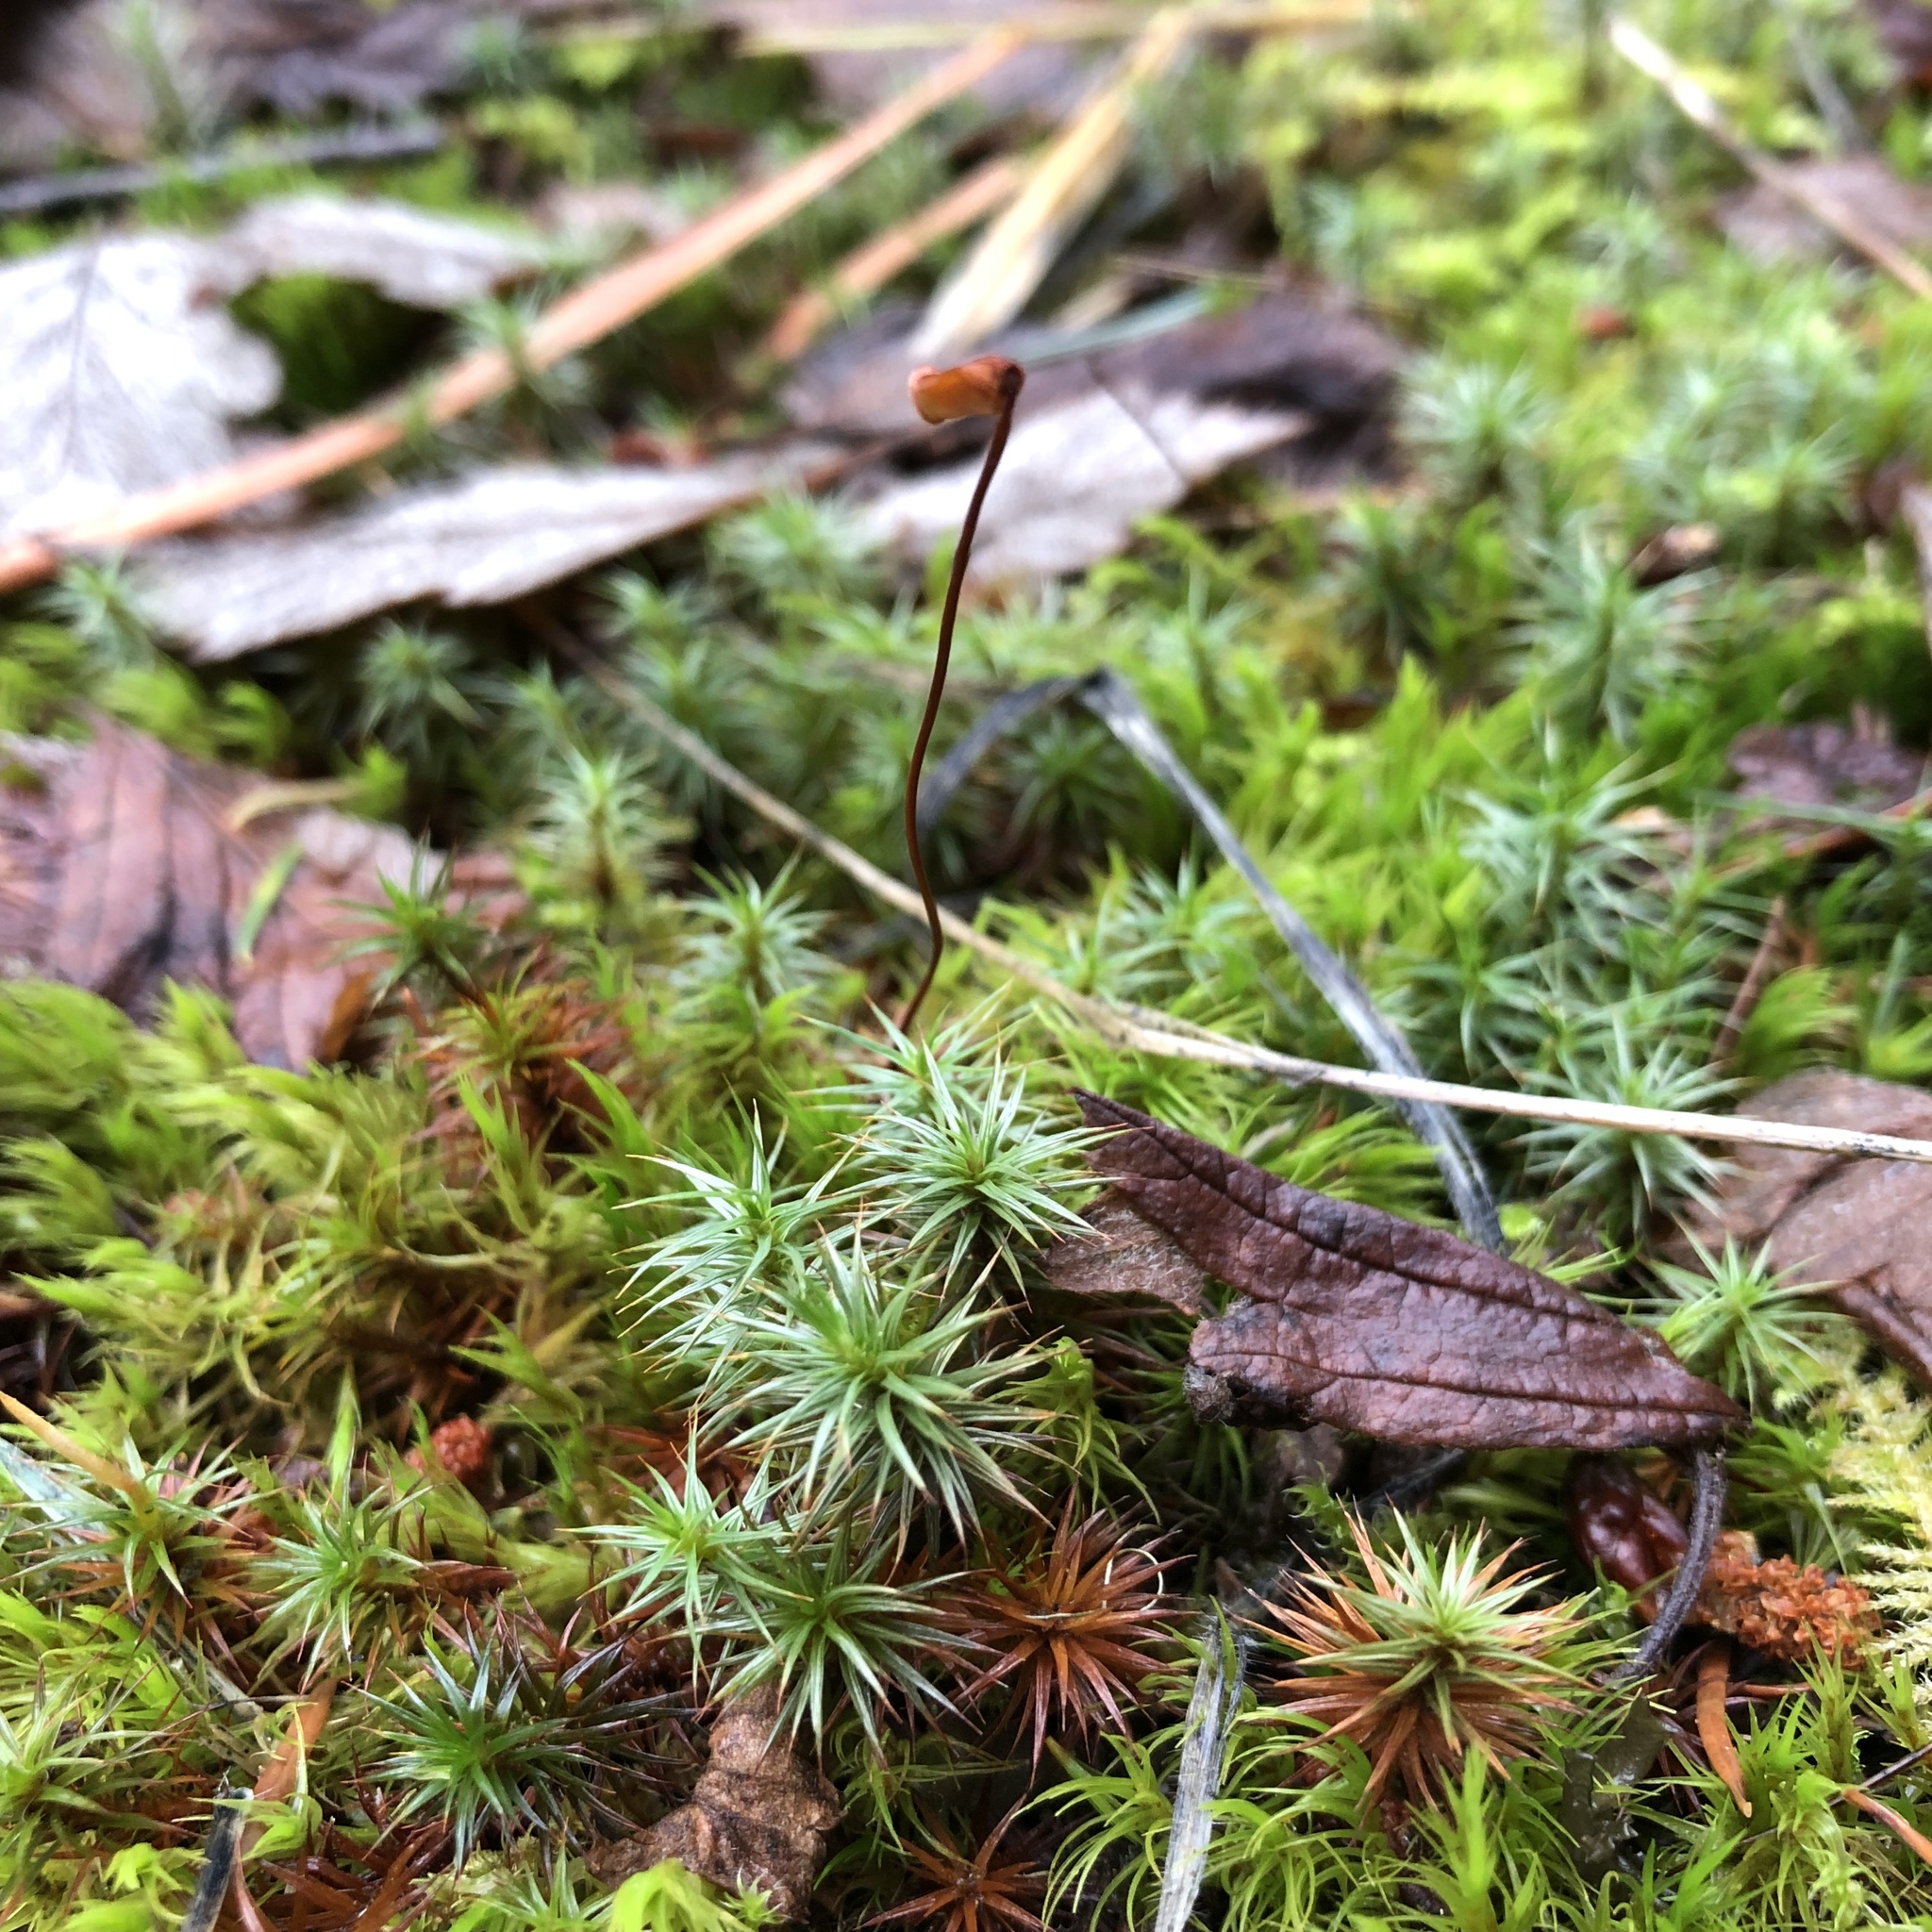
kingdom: Plantae
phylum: Bryophyta
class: Polytrichopsida
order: Polytrichales
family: Polytrichaceae
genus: Polytrichum
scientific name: Polytrichum juniperinum
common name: Juniper haircap moss
